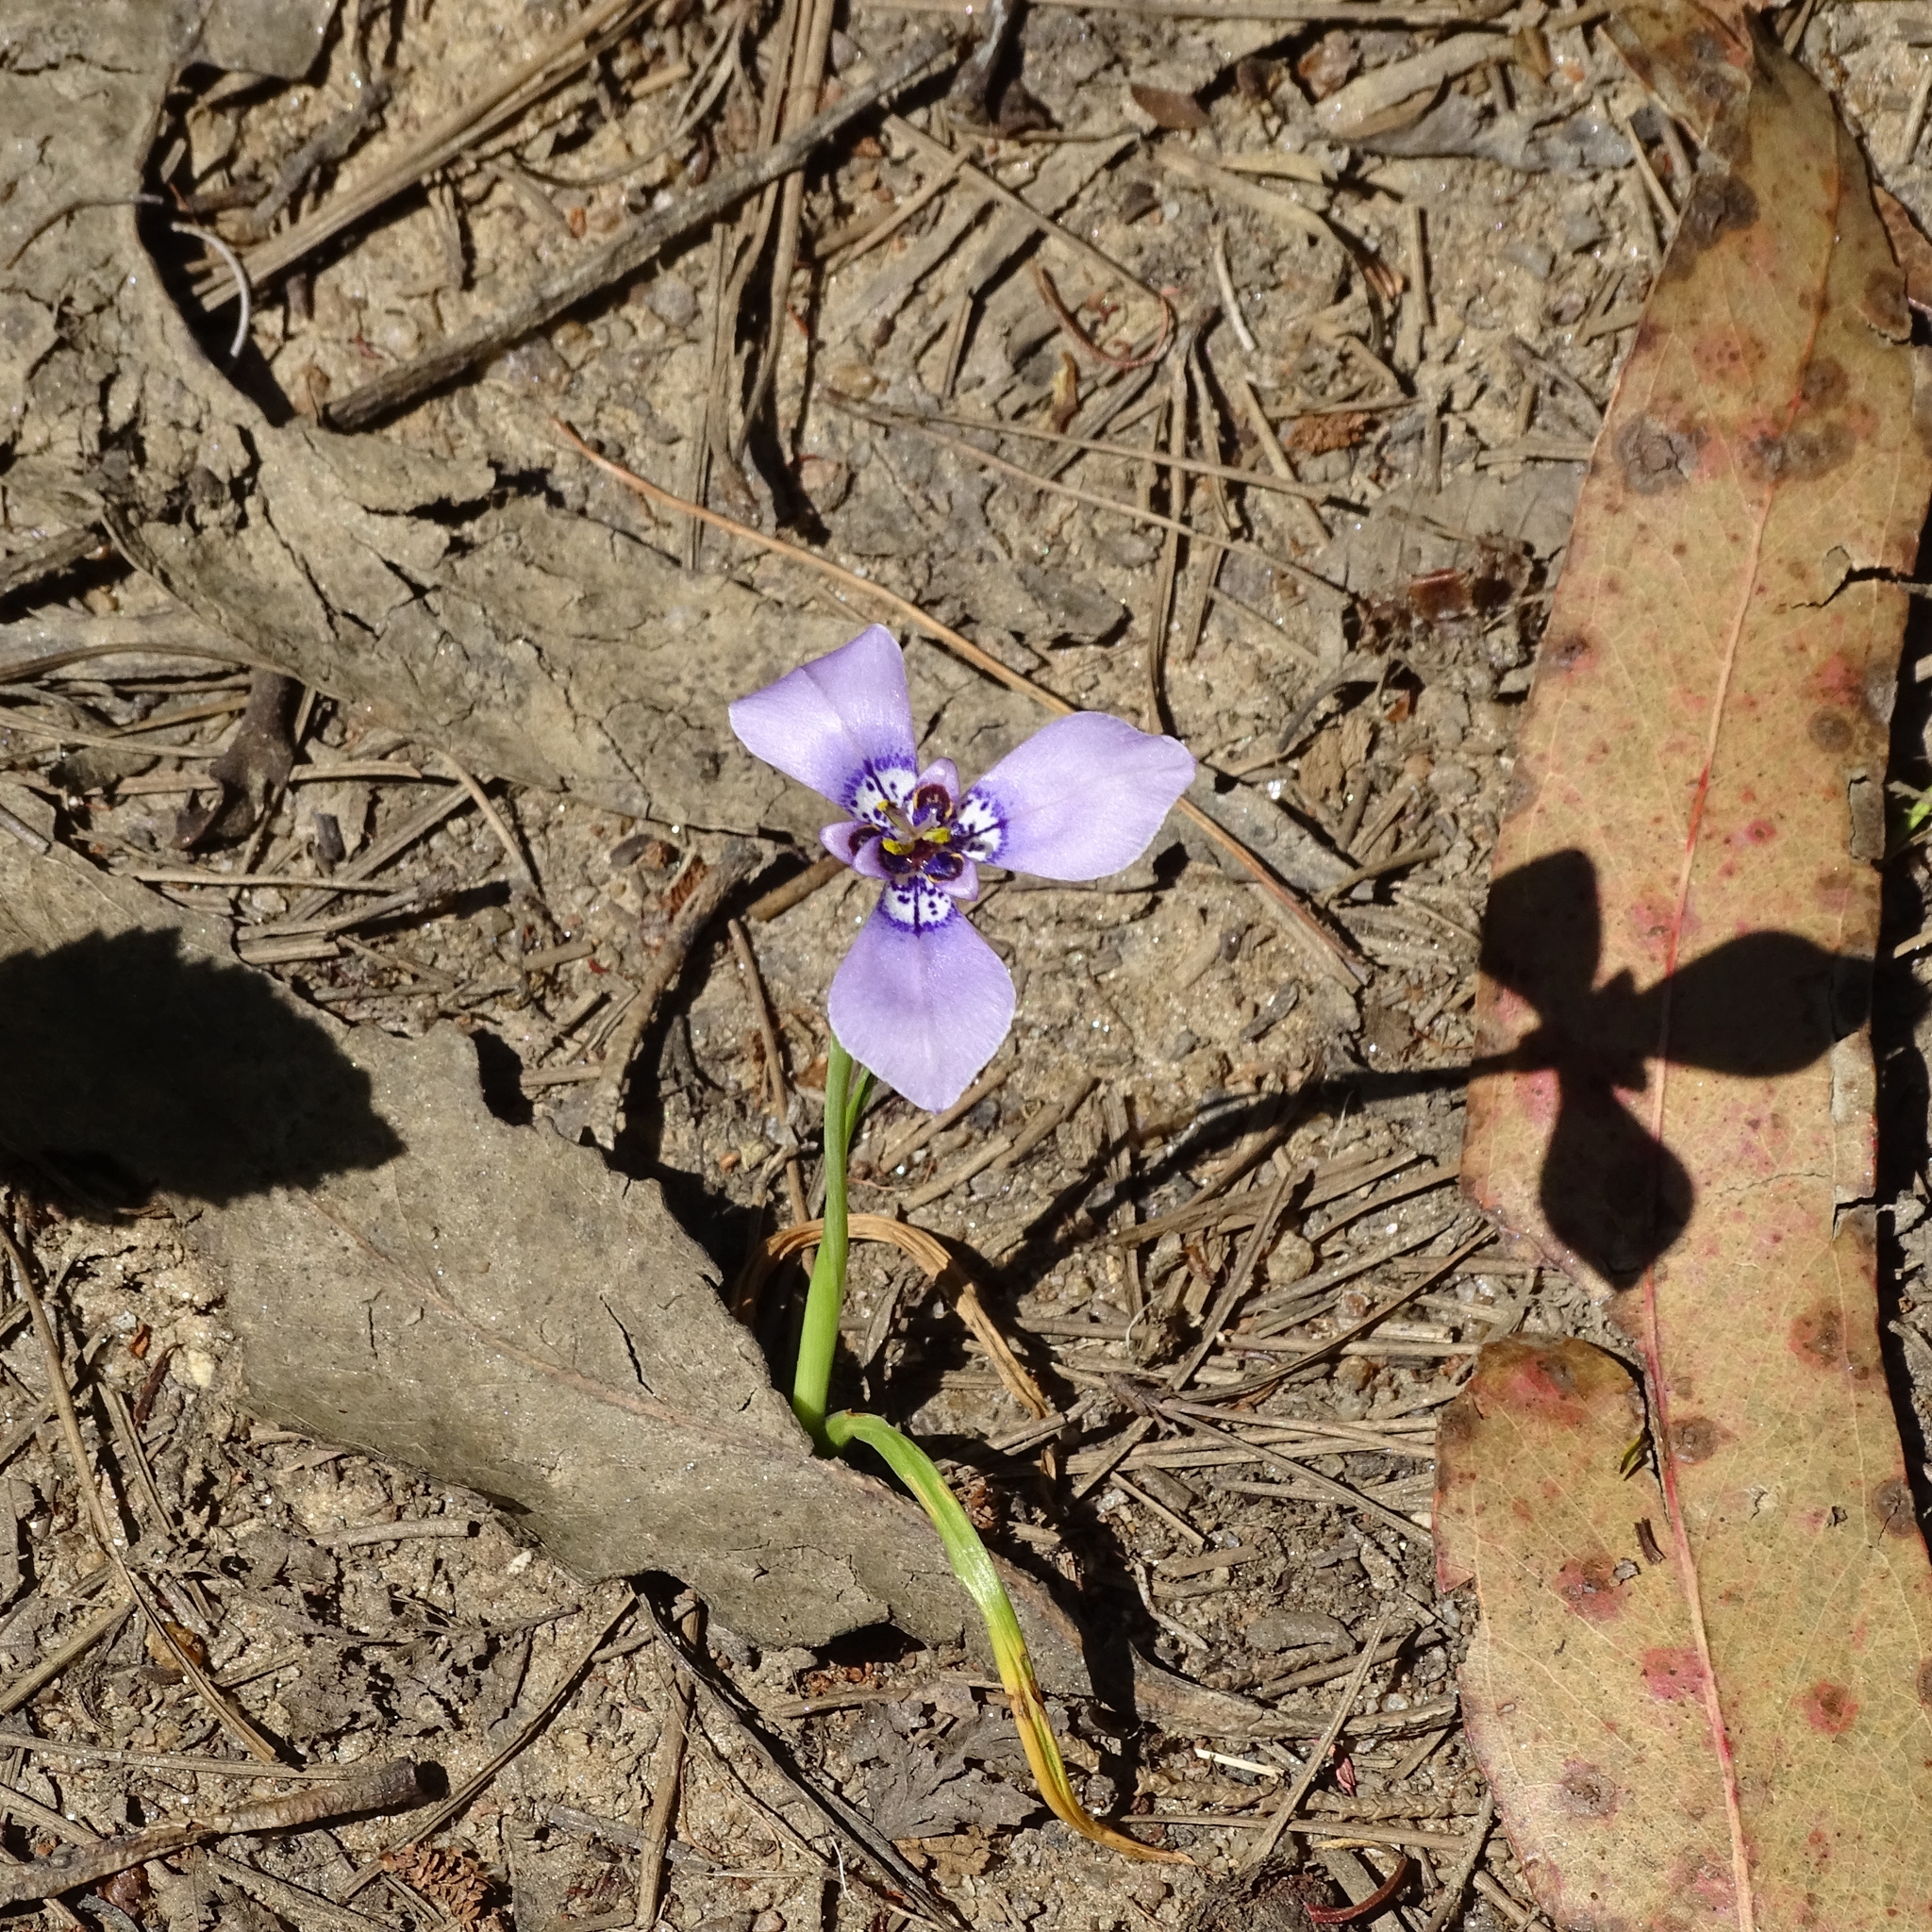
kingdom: Plantae
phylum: Tracheophyta
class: Liliopsida
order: Asparagales
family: Iridaceae
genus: Herbertia
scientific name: Herbertia lahue
